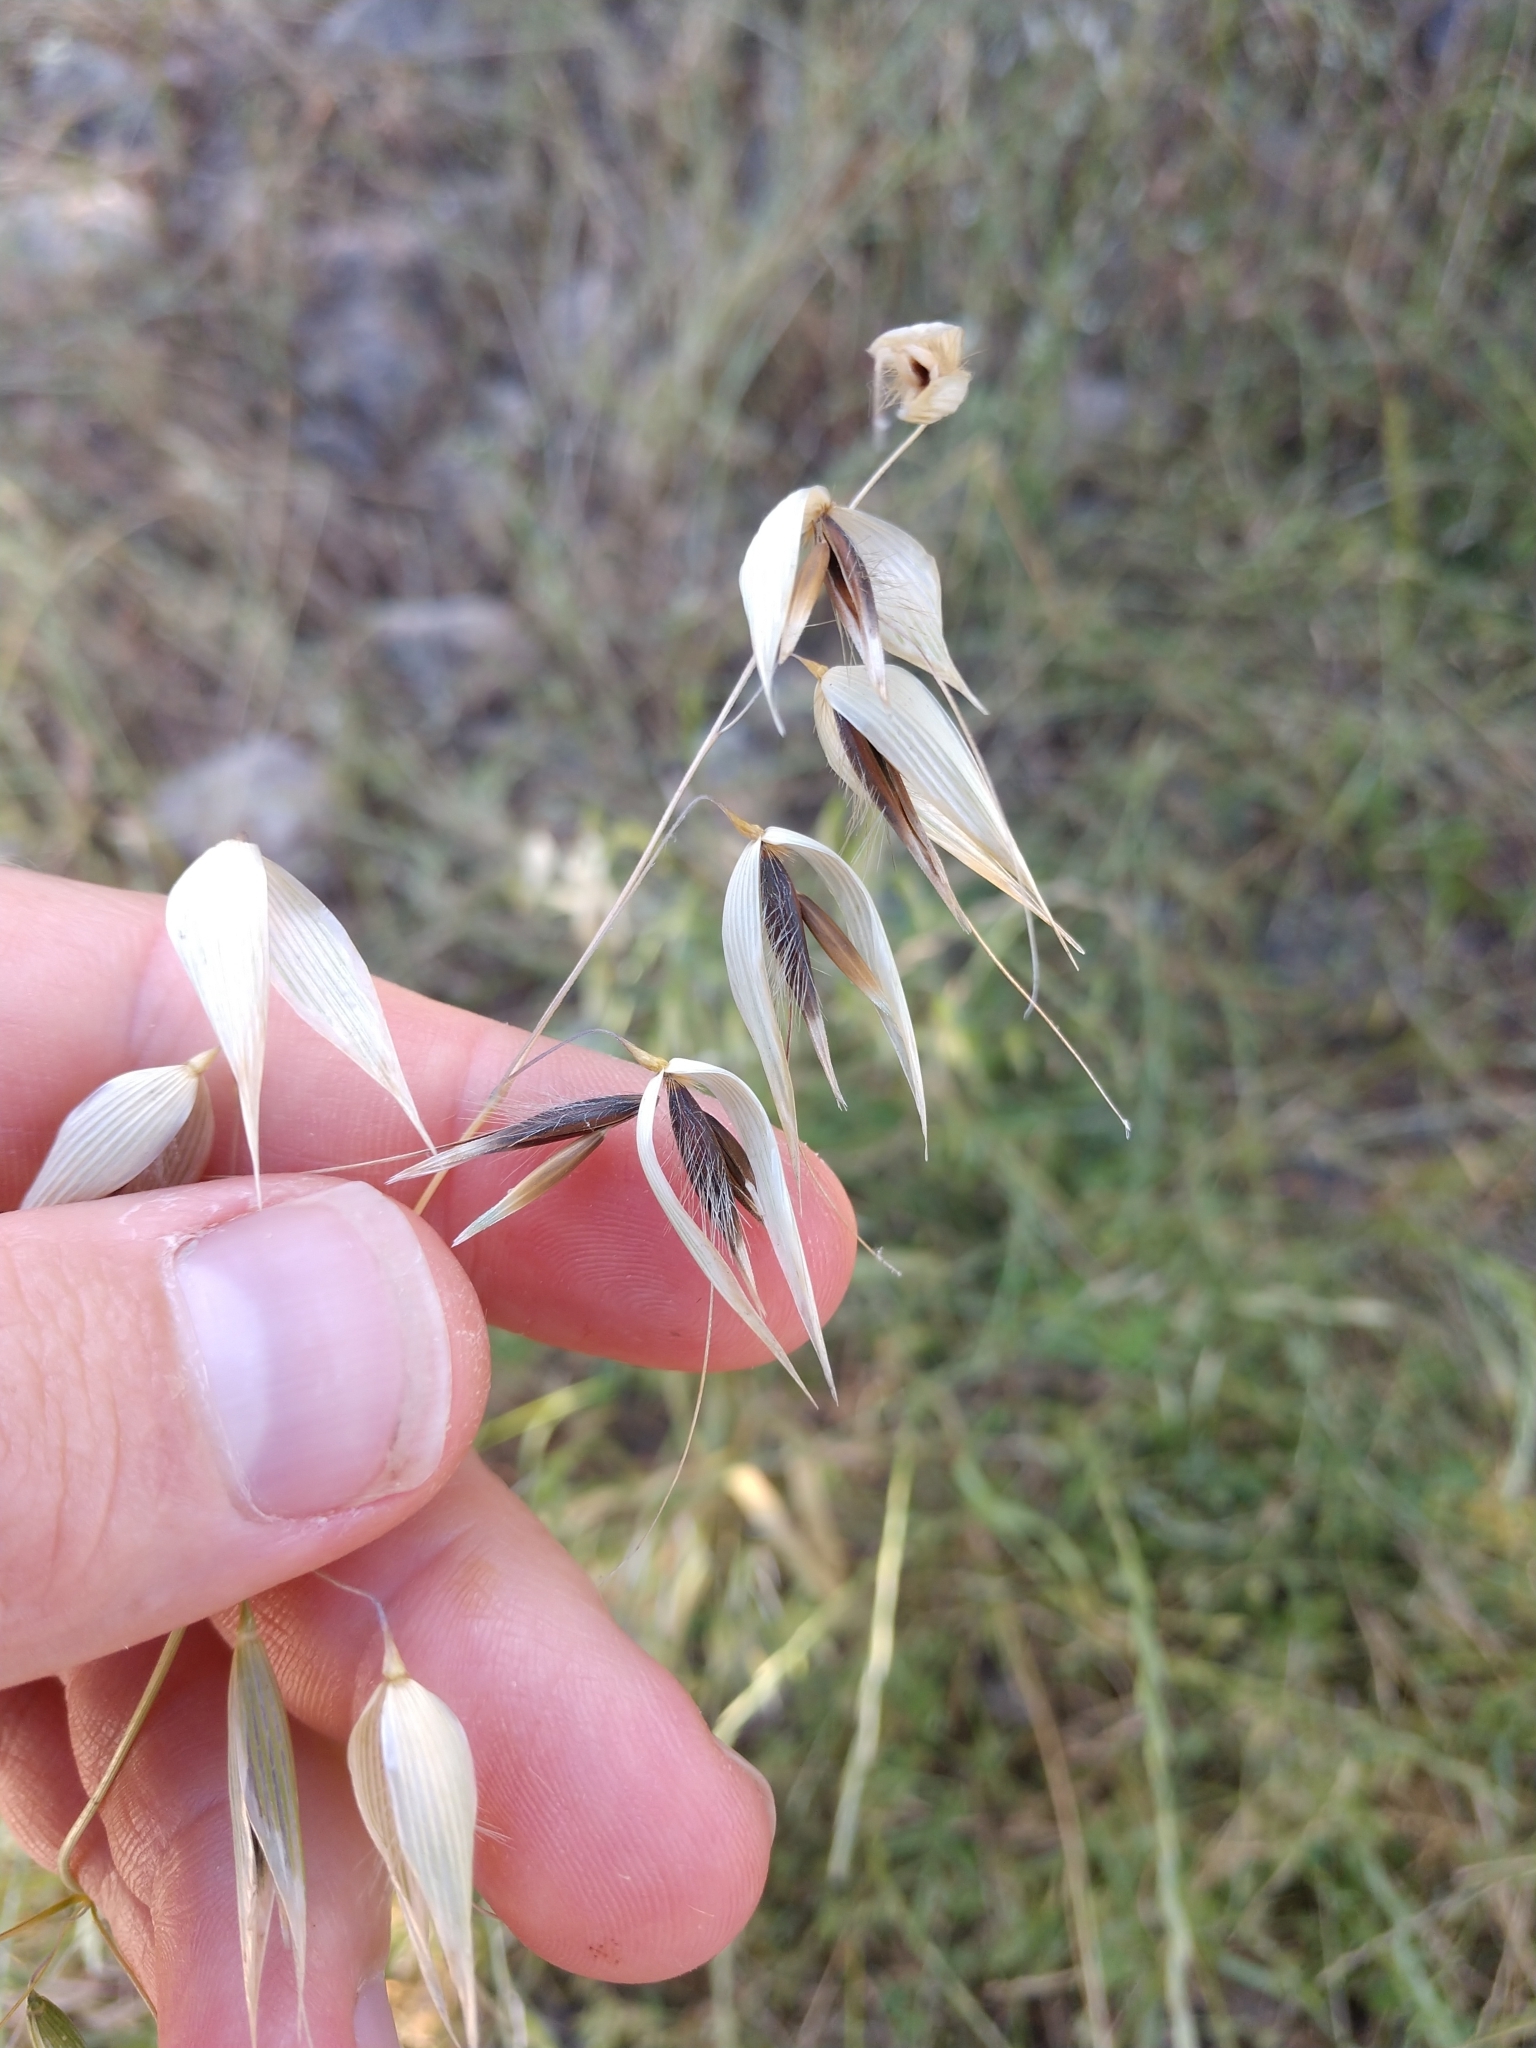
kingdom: Plantae
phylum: Tracheophyta
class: Liliopsida
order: Poales
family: Poaceae
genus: Avena
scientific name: Avena fatua
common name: Wild oat
